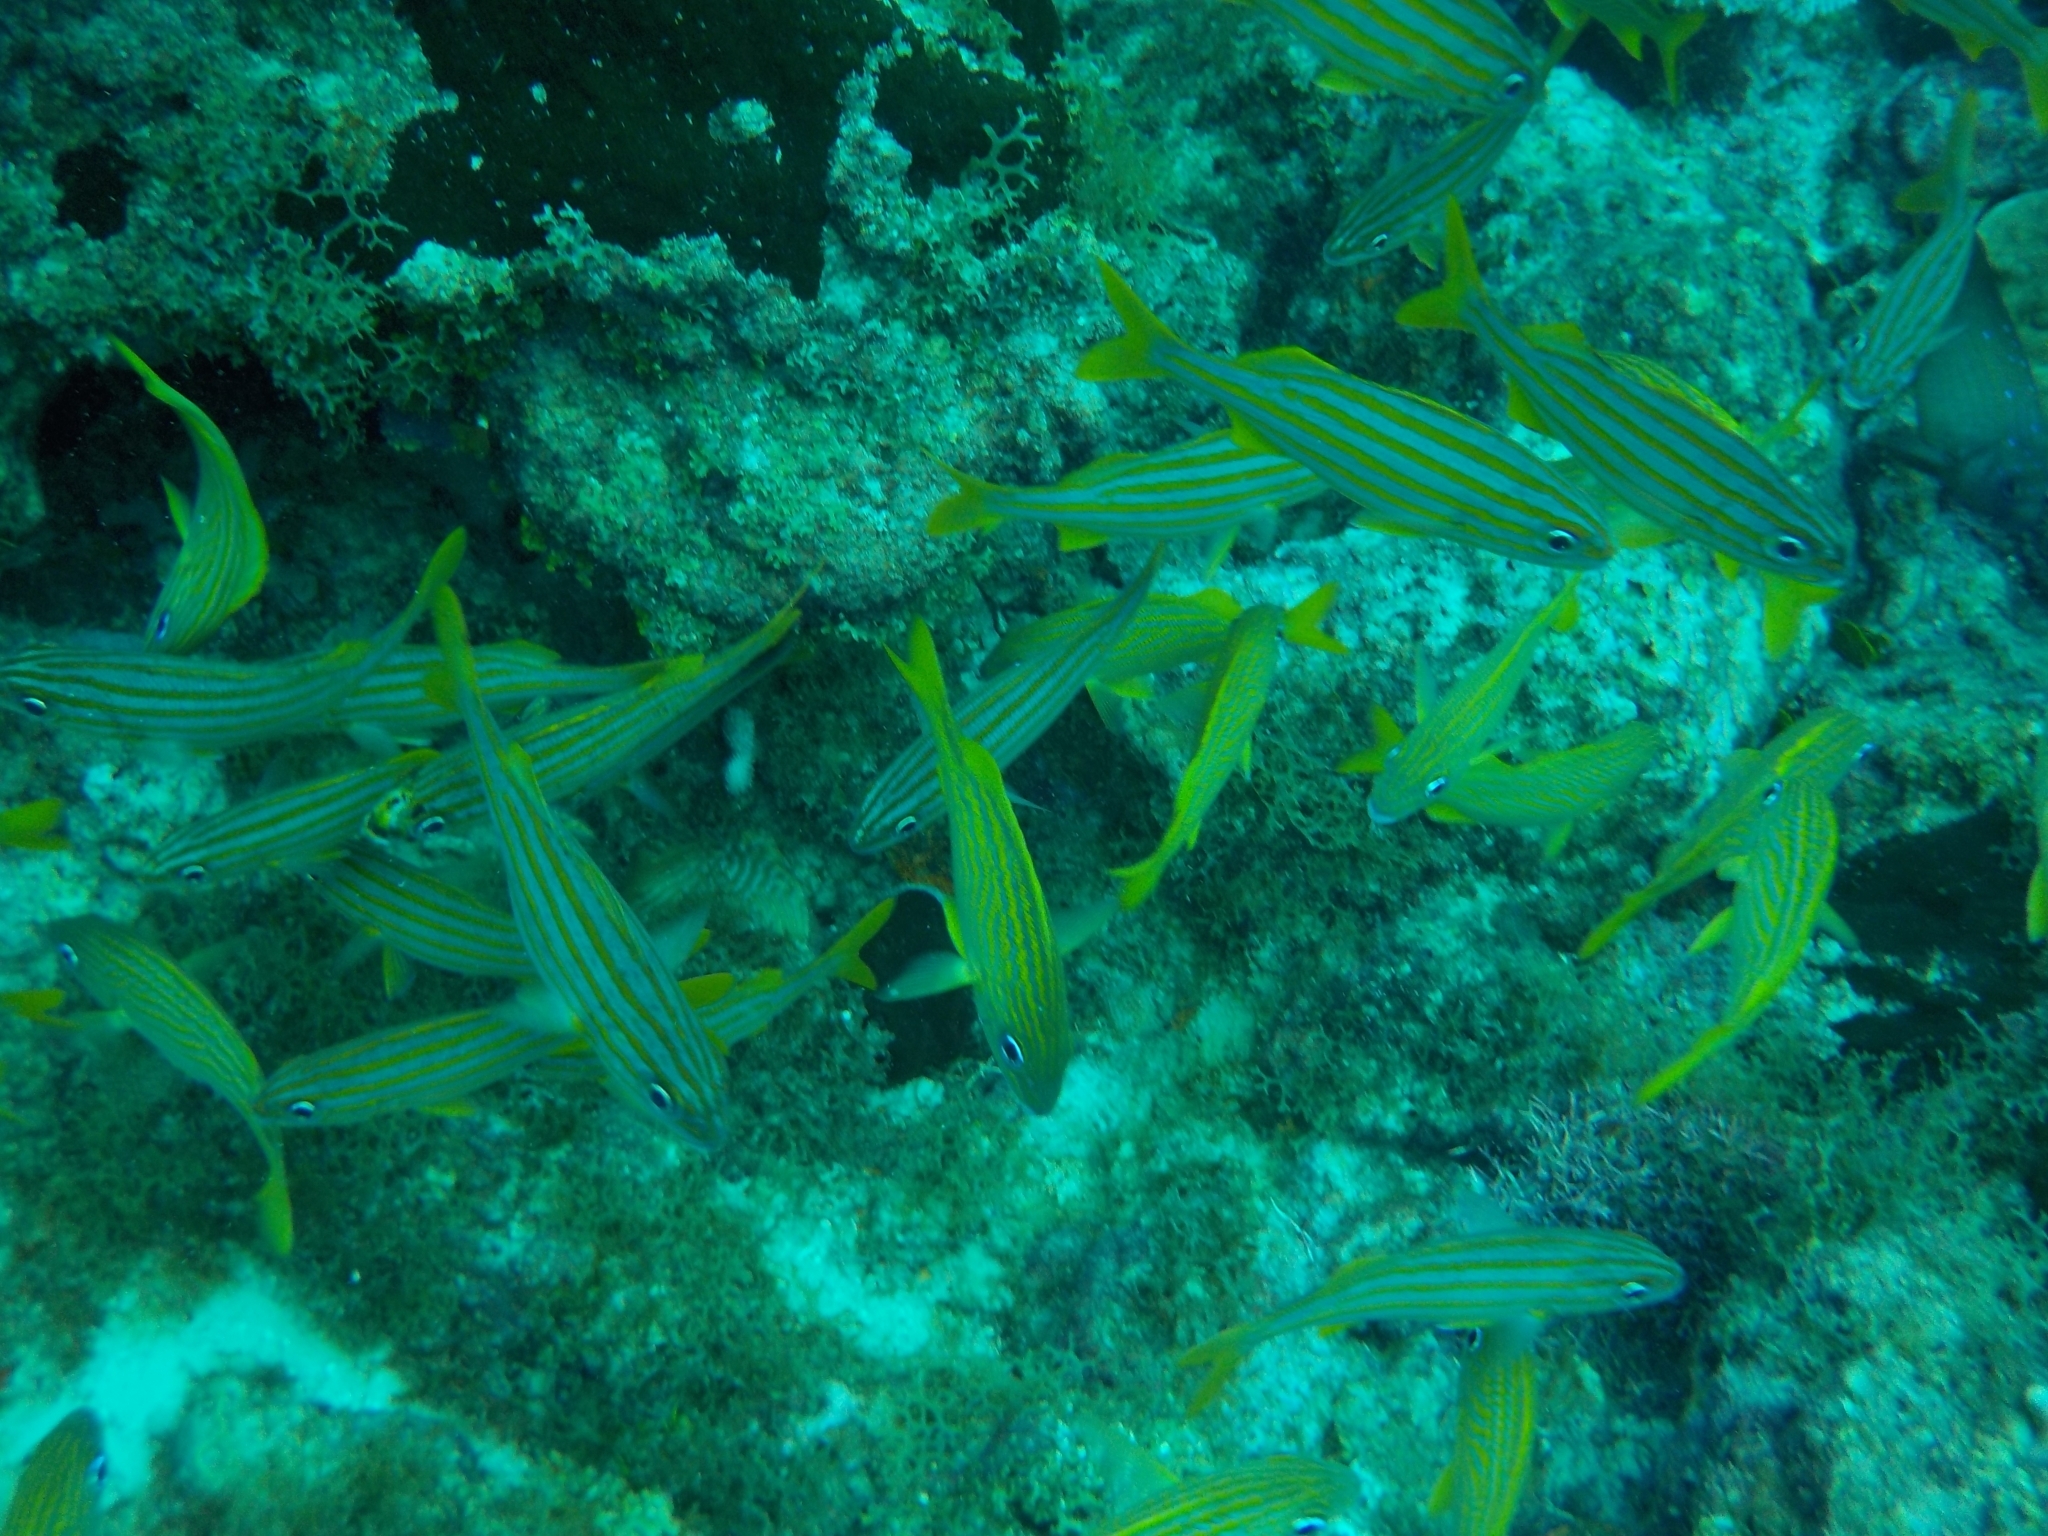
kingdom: Animalia
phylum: Chordata
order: Perciformes
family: Haemulidae
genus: Haemulon
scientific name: Haemulon chrysargyreum
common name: Smallmouth grunt
